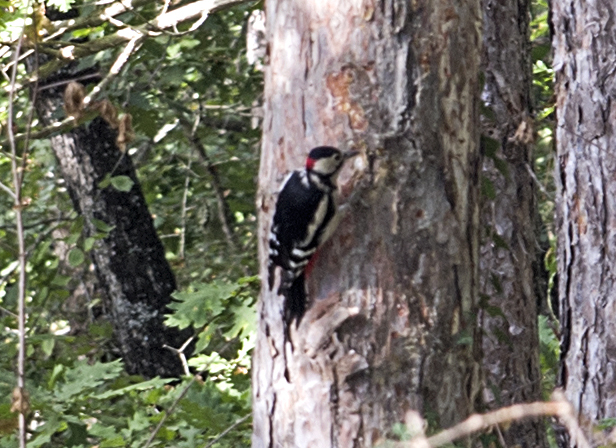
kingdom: Animalia
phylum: Chordata
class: Aves
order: Piciformes
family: Picidae
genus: Dendrocopos
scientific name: Dendrocopos major
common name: Great spotted woodpecker
